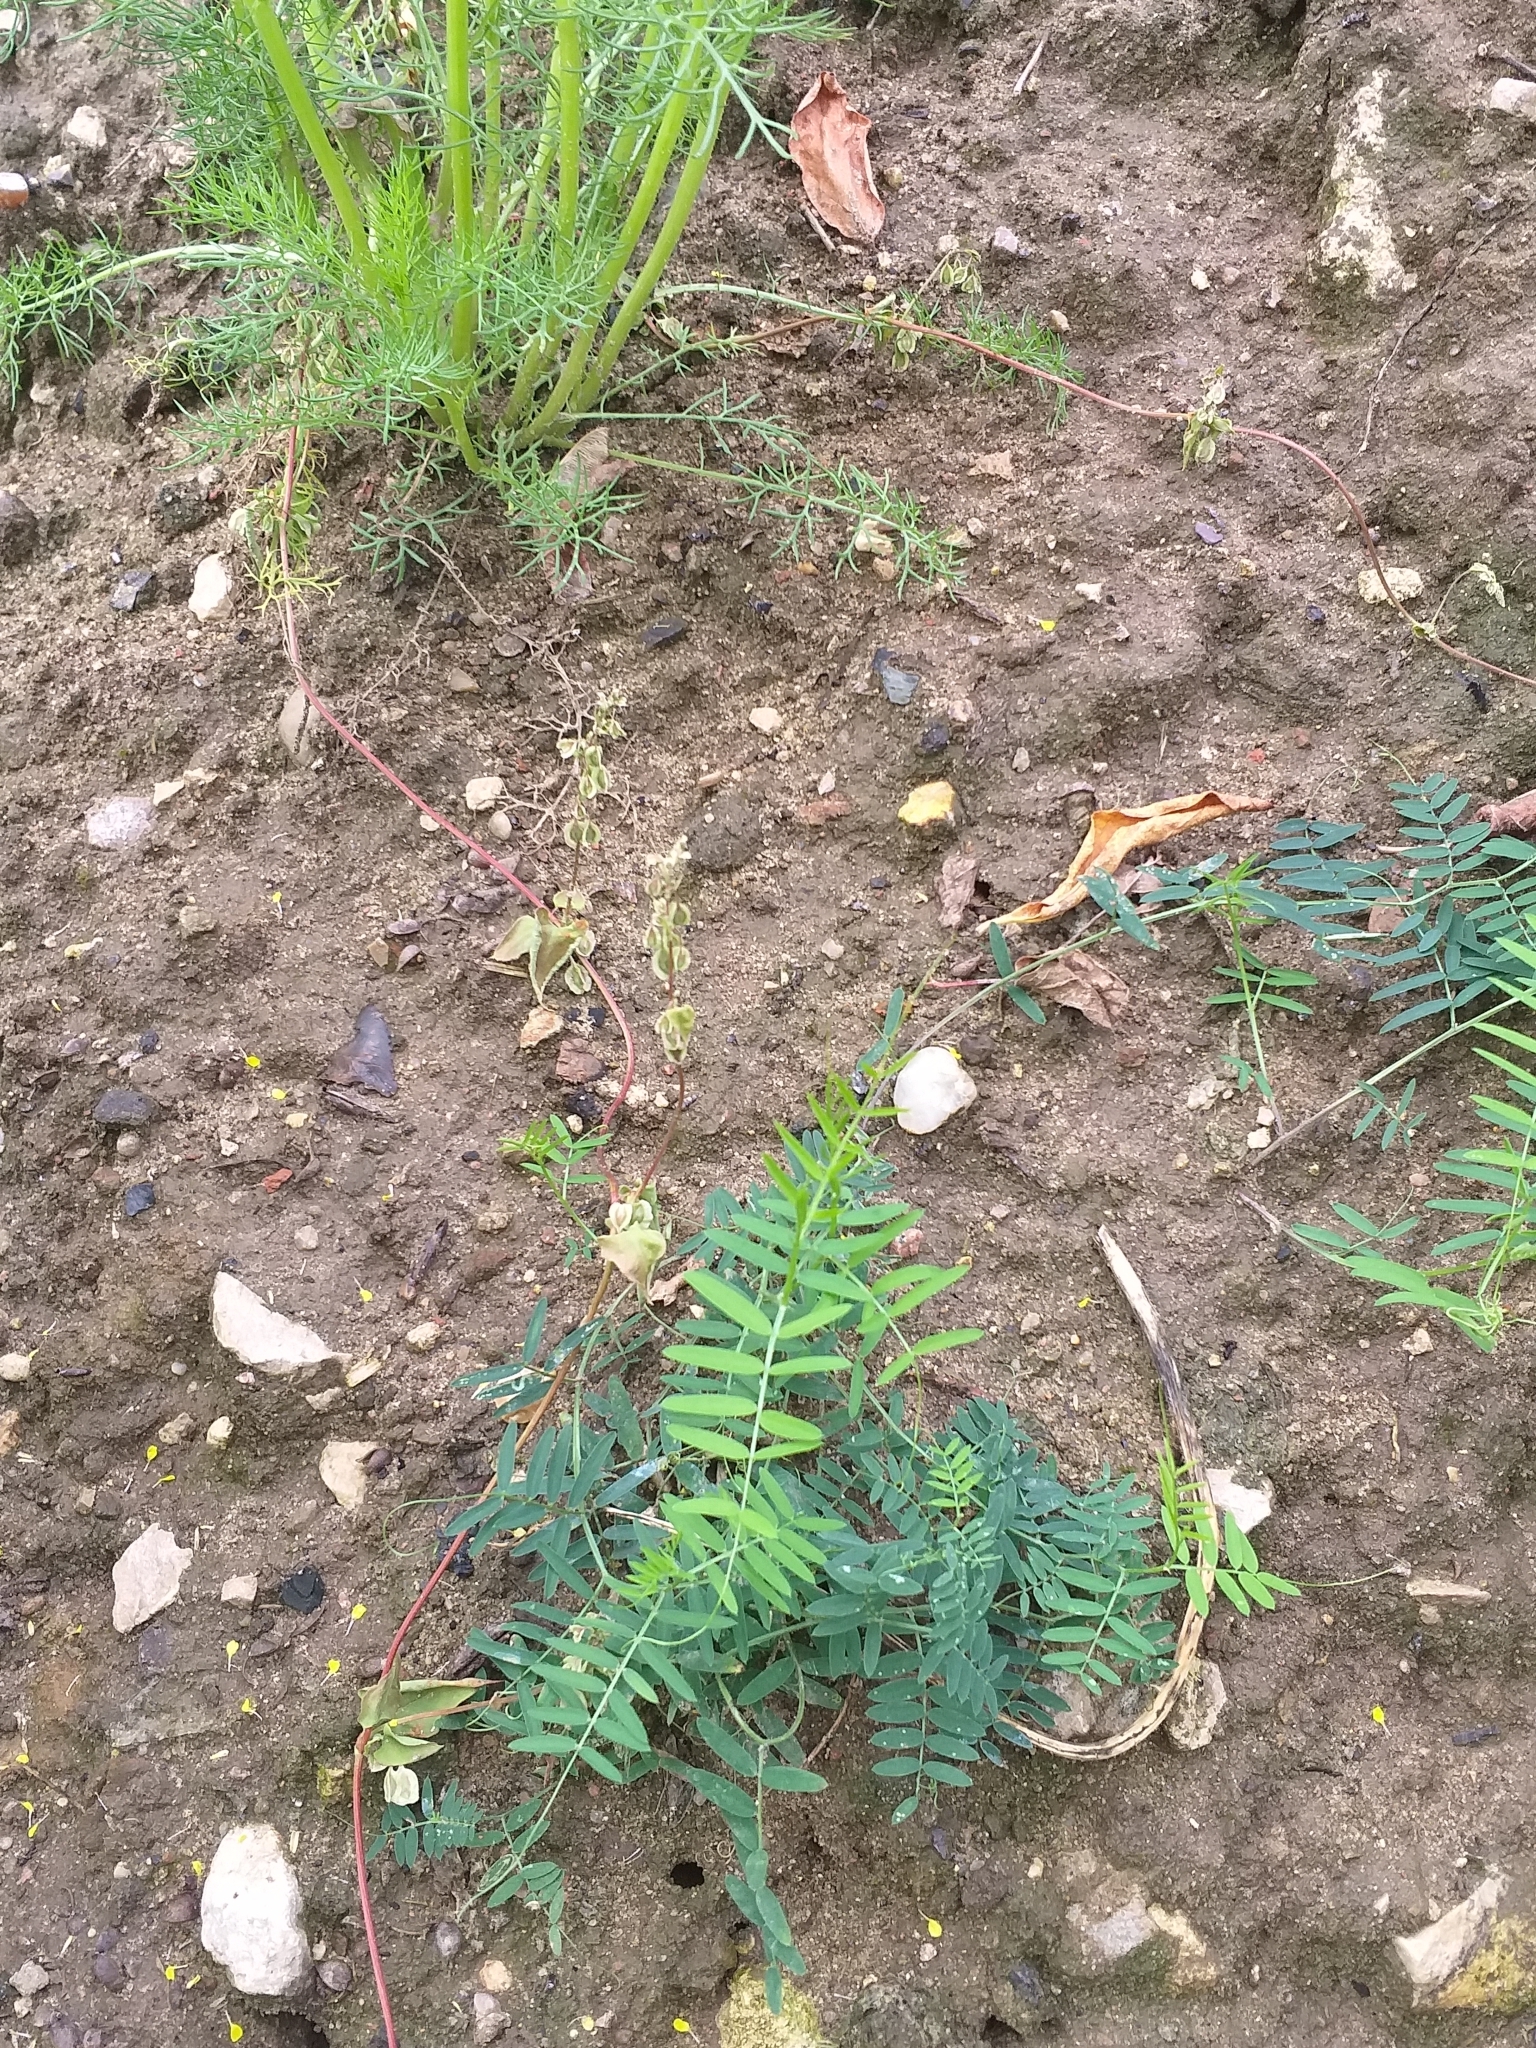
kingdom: Plantae
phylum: Tracheophyta
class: Magnoliopsida
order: Caryophyllales
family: Polygonaceae
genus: Fallopia
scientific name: Fallopia dumetorum
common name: Copse-bindweed
